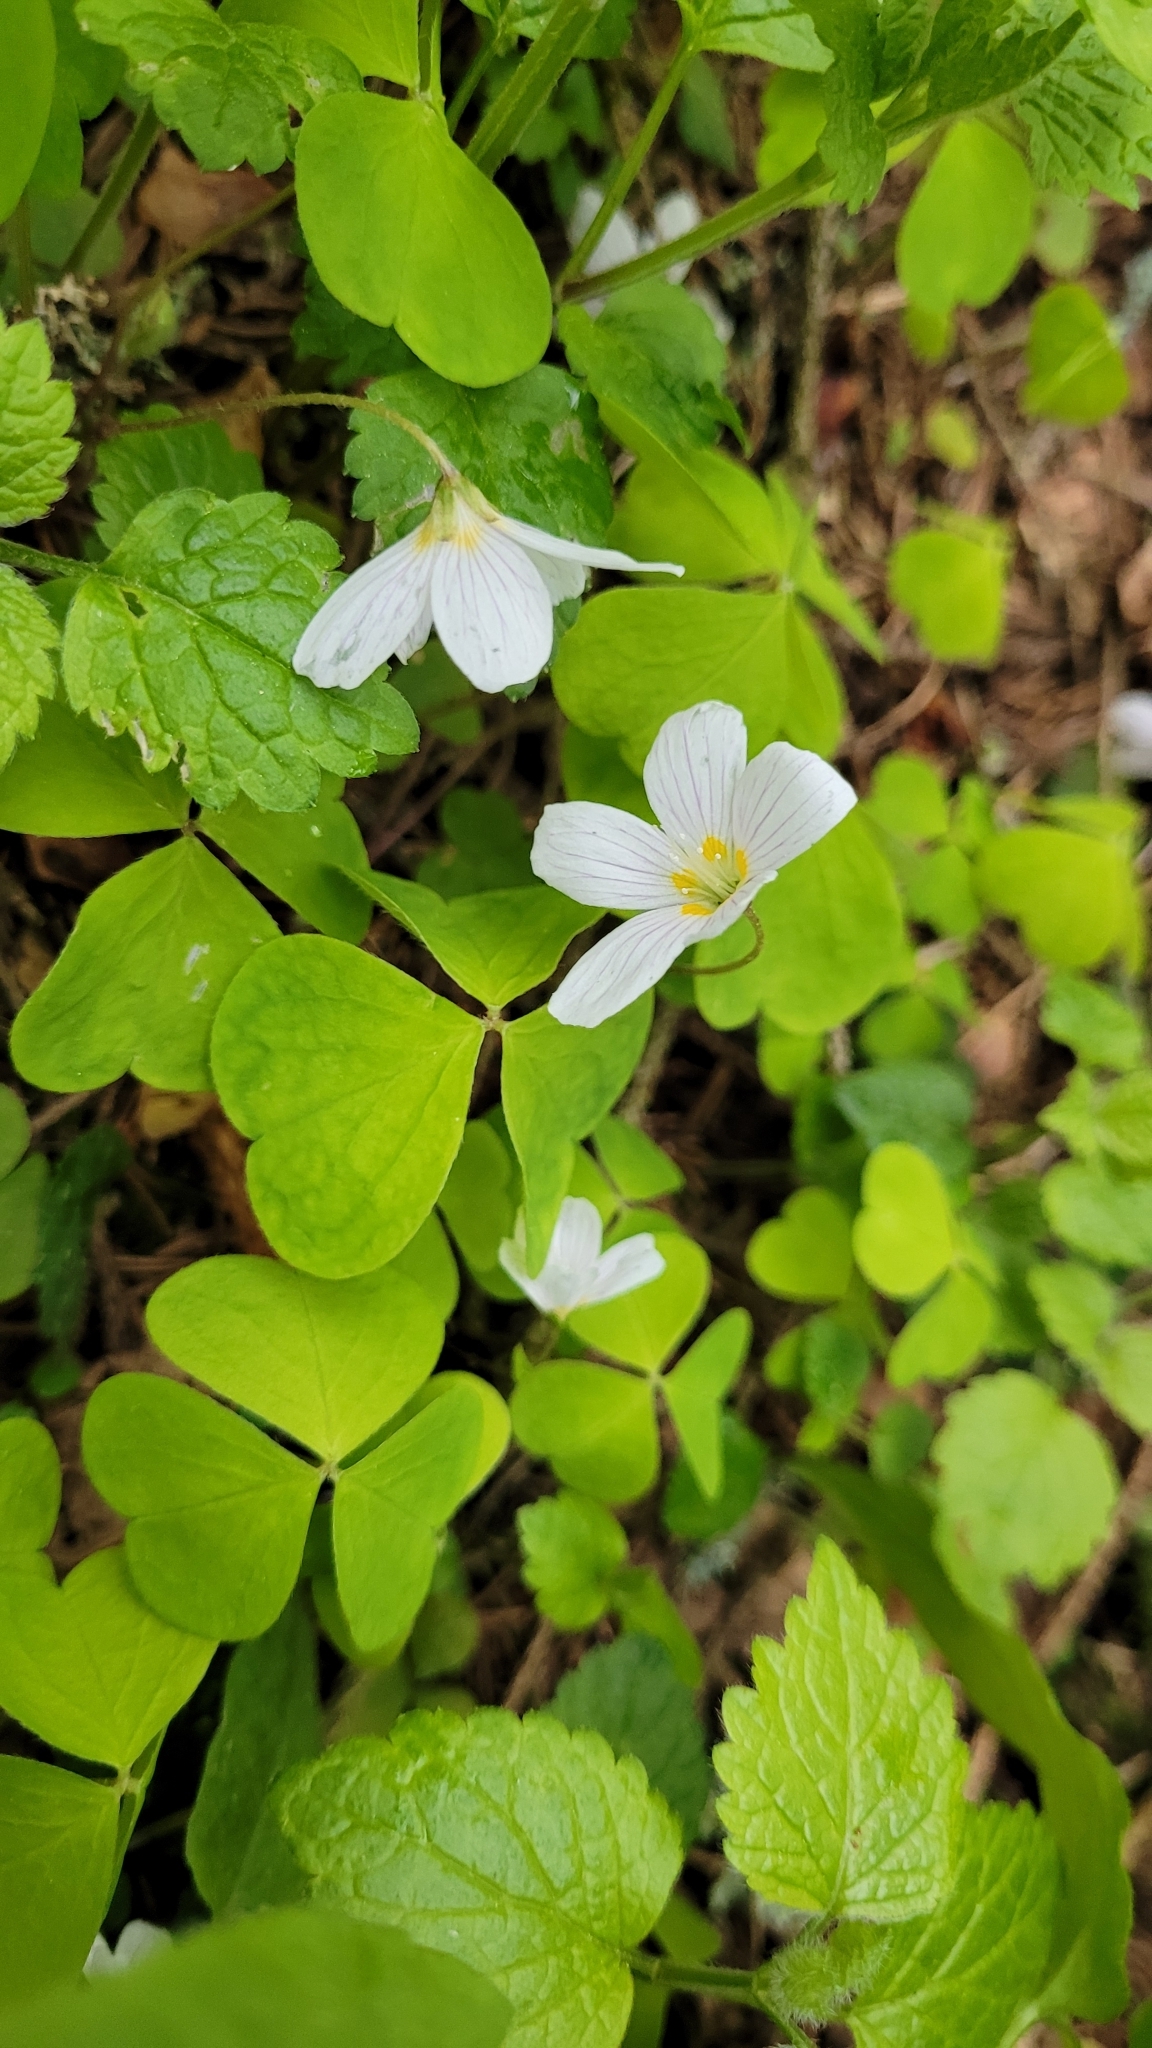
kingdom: Plantae
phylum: Tracheophyta
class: Magnoliopsida
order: Oxalidales
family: Oxalidaceae
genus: Oxalis
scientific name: Oxalis acetosella
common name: Wood-sorrel
